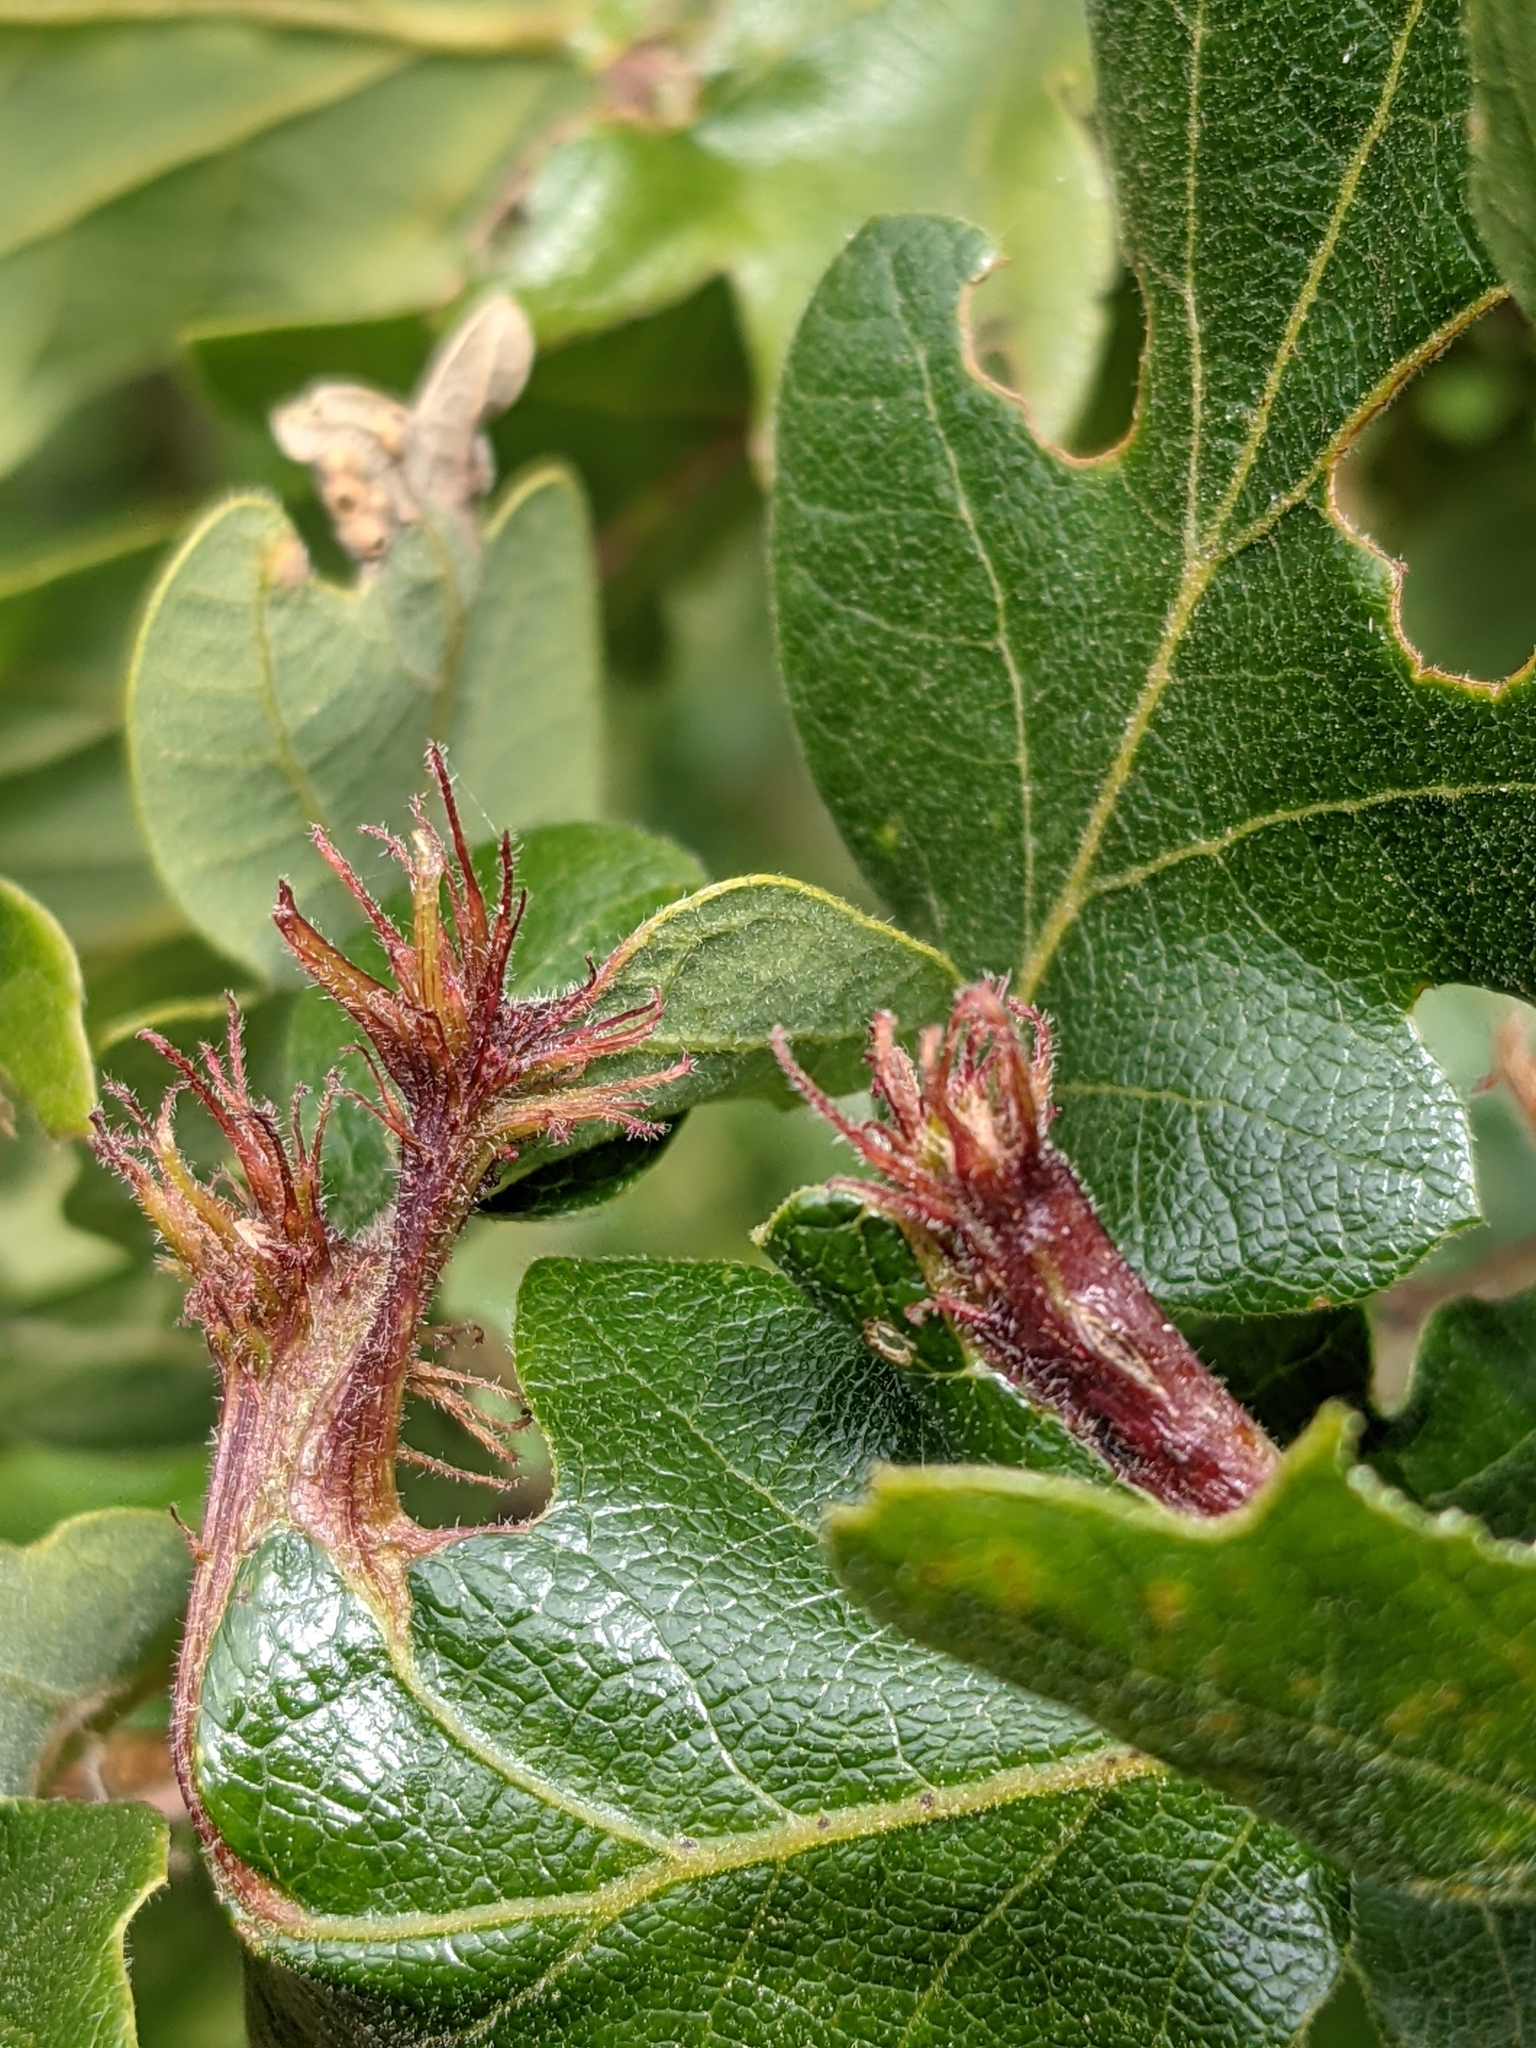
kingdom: Animalia
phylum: Arthropoda
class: Insecta
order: Hymenoptera
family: Cynipidae
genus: Andricus
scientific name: Andricus
